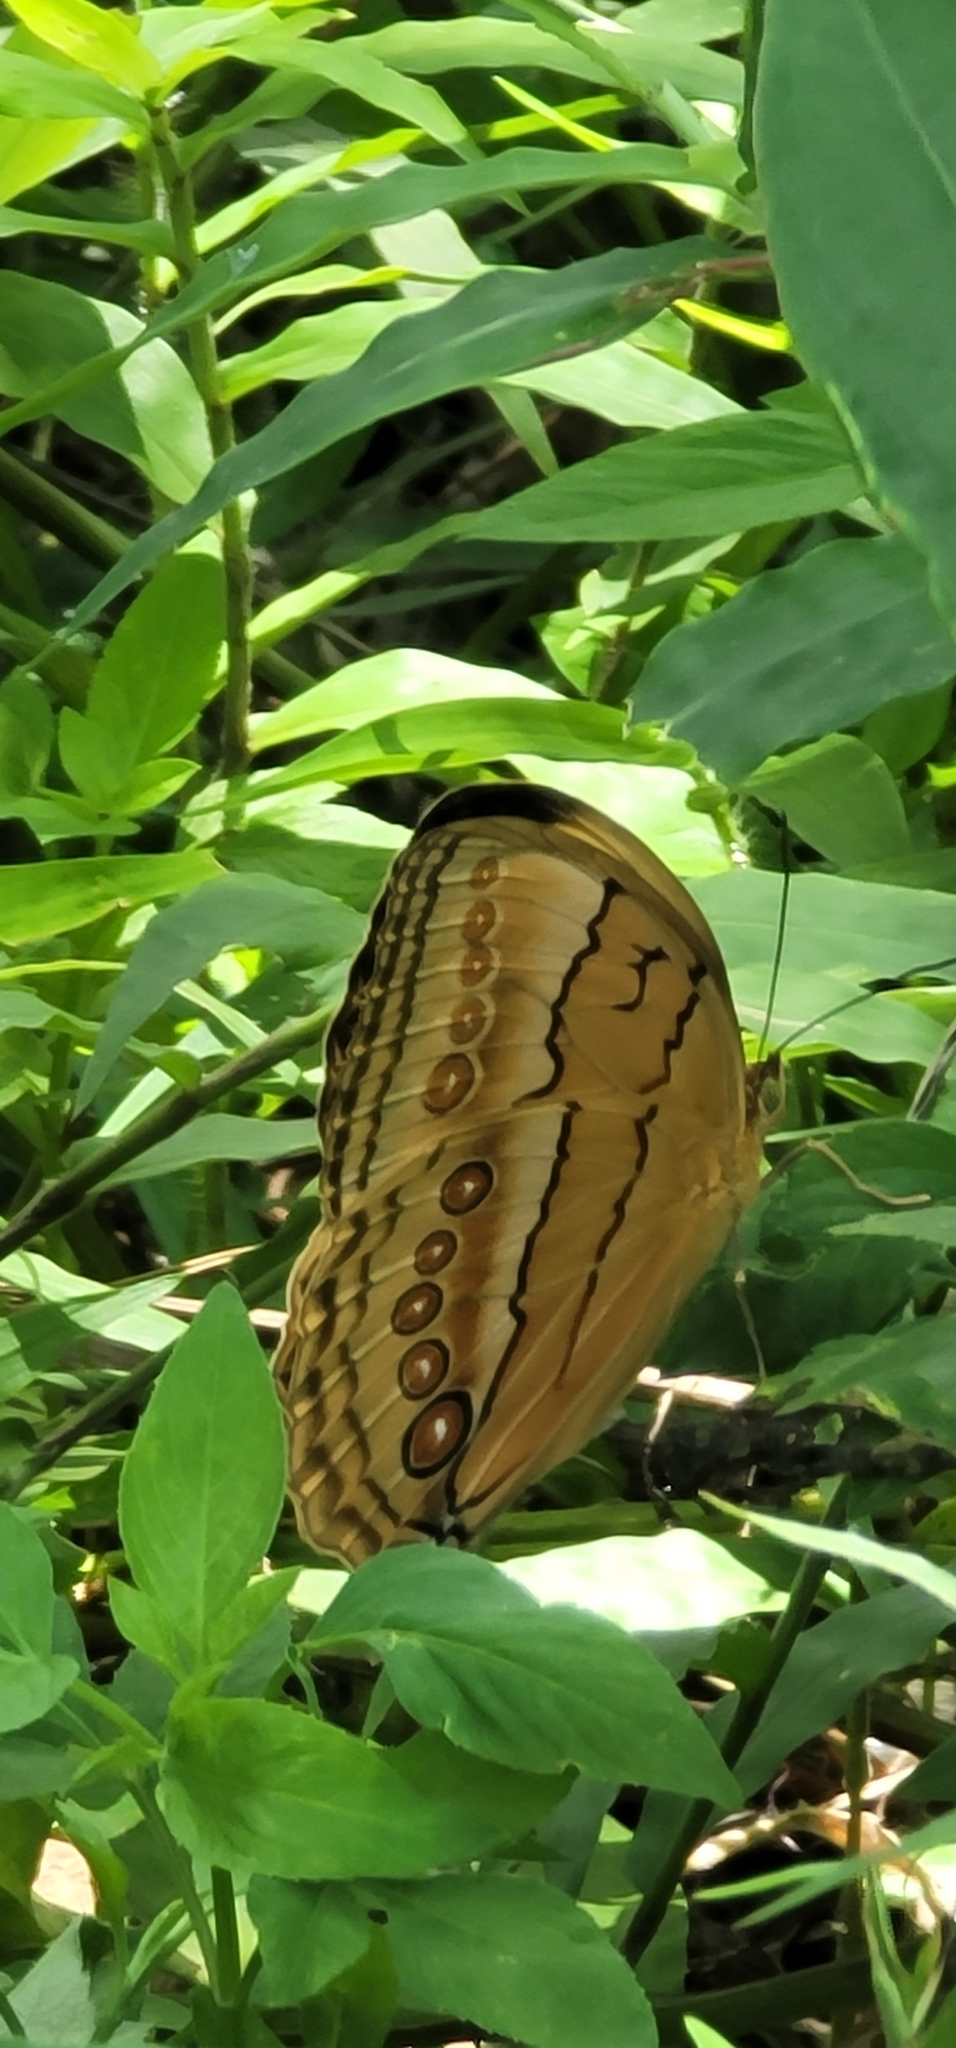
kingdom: Animalia
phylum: Arthropoda
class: Insecta
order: Lepidoptera
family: Nymphalidae
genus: Stichophthalma
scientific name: Stichophthalma howqua
